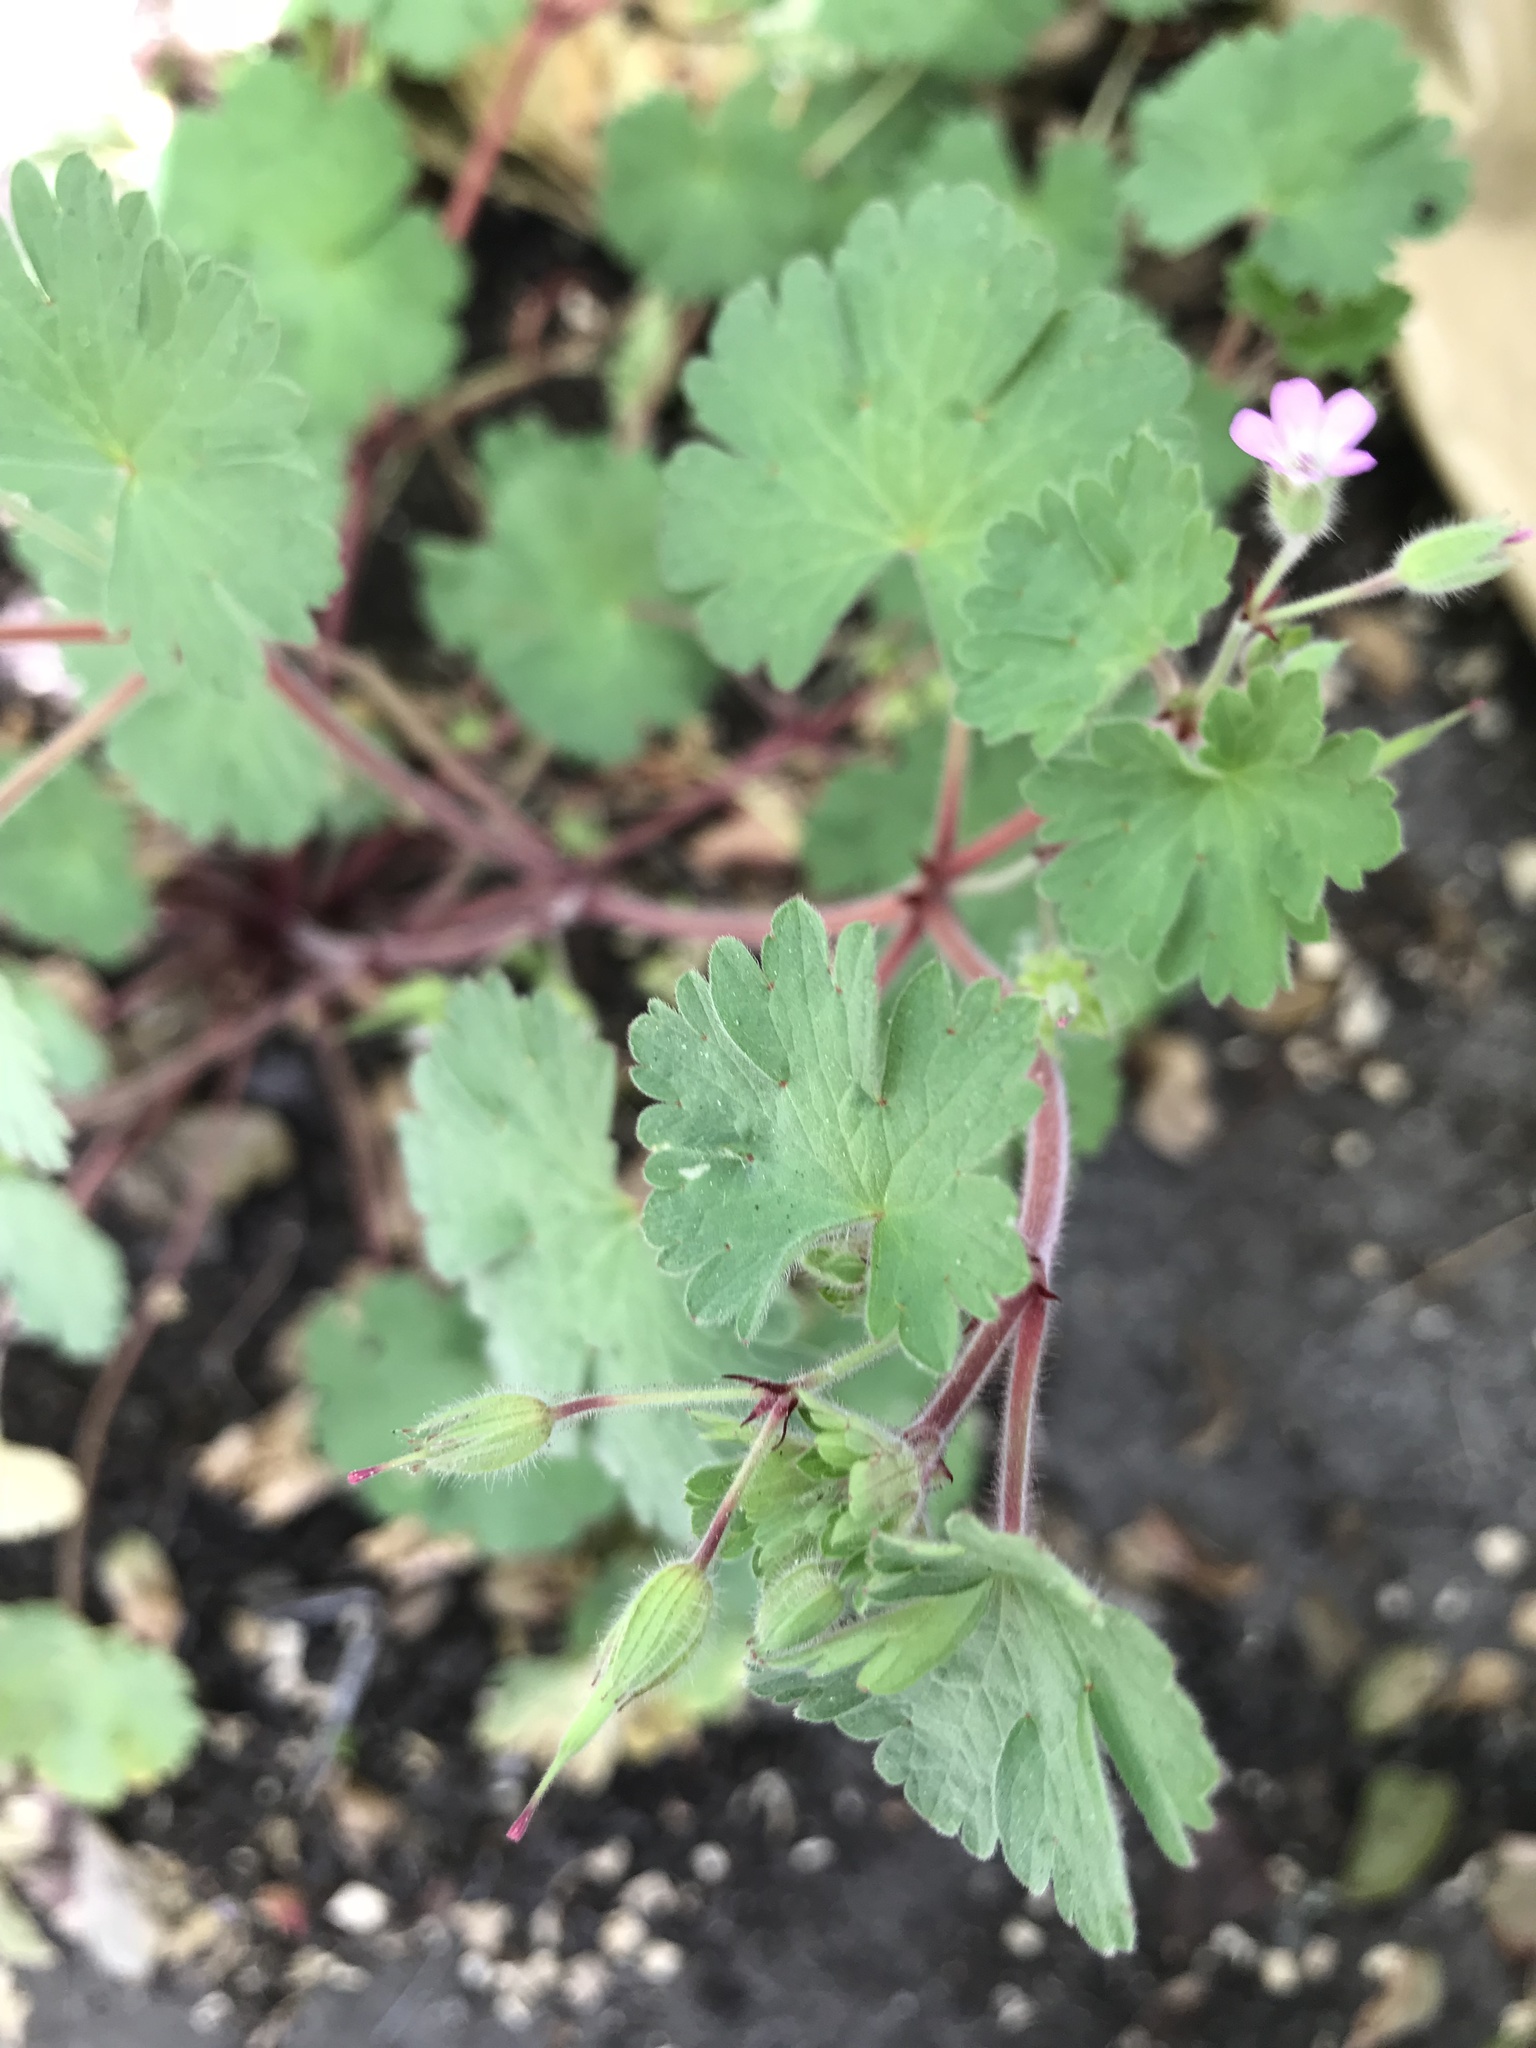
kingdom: Plantae
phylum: Tracheophyta
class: Magnoliopsida
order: Geraniales
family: Geraniaceae
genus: Geranium
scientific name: Geranium rotundifolium
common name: Round-leaved crane's-bill
